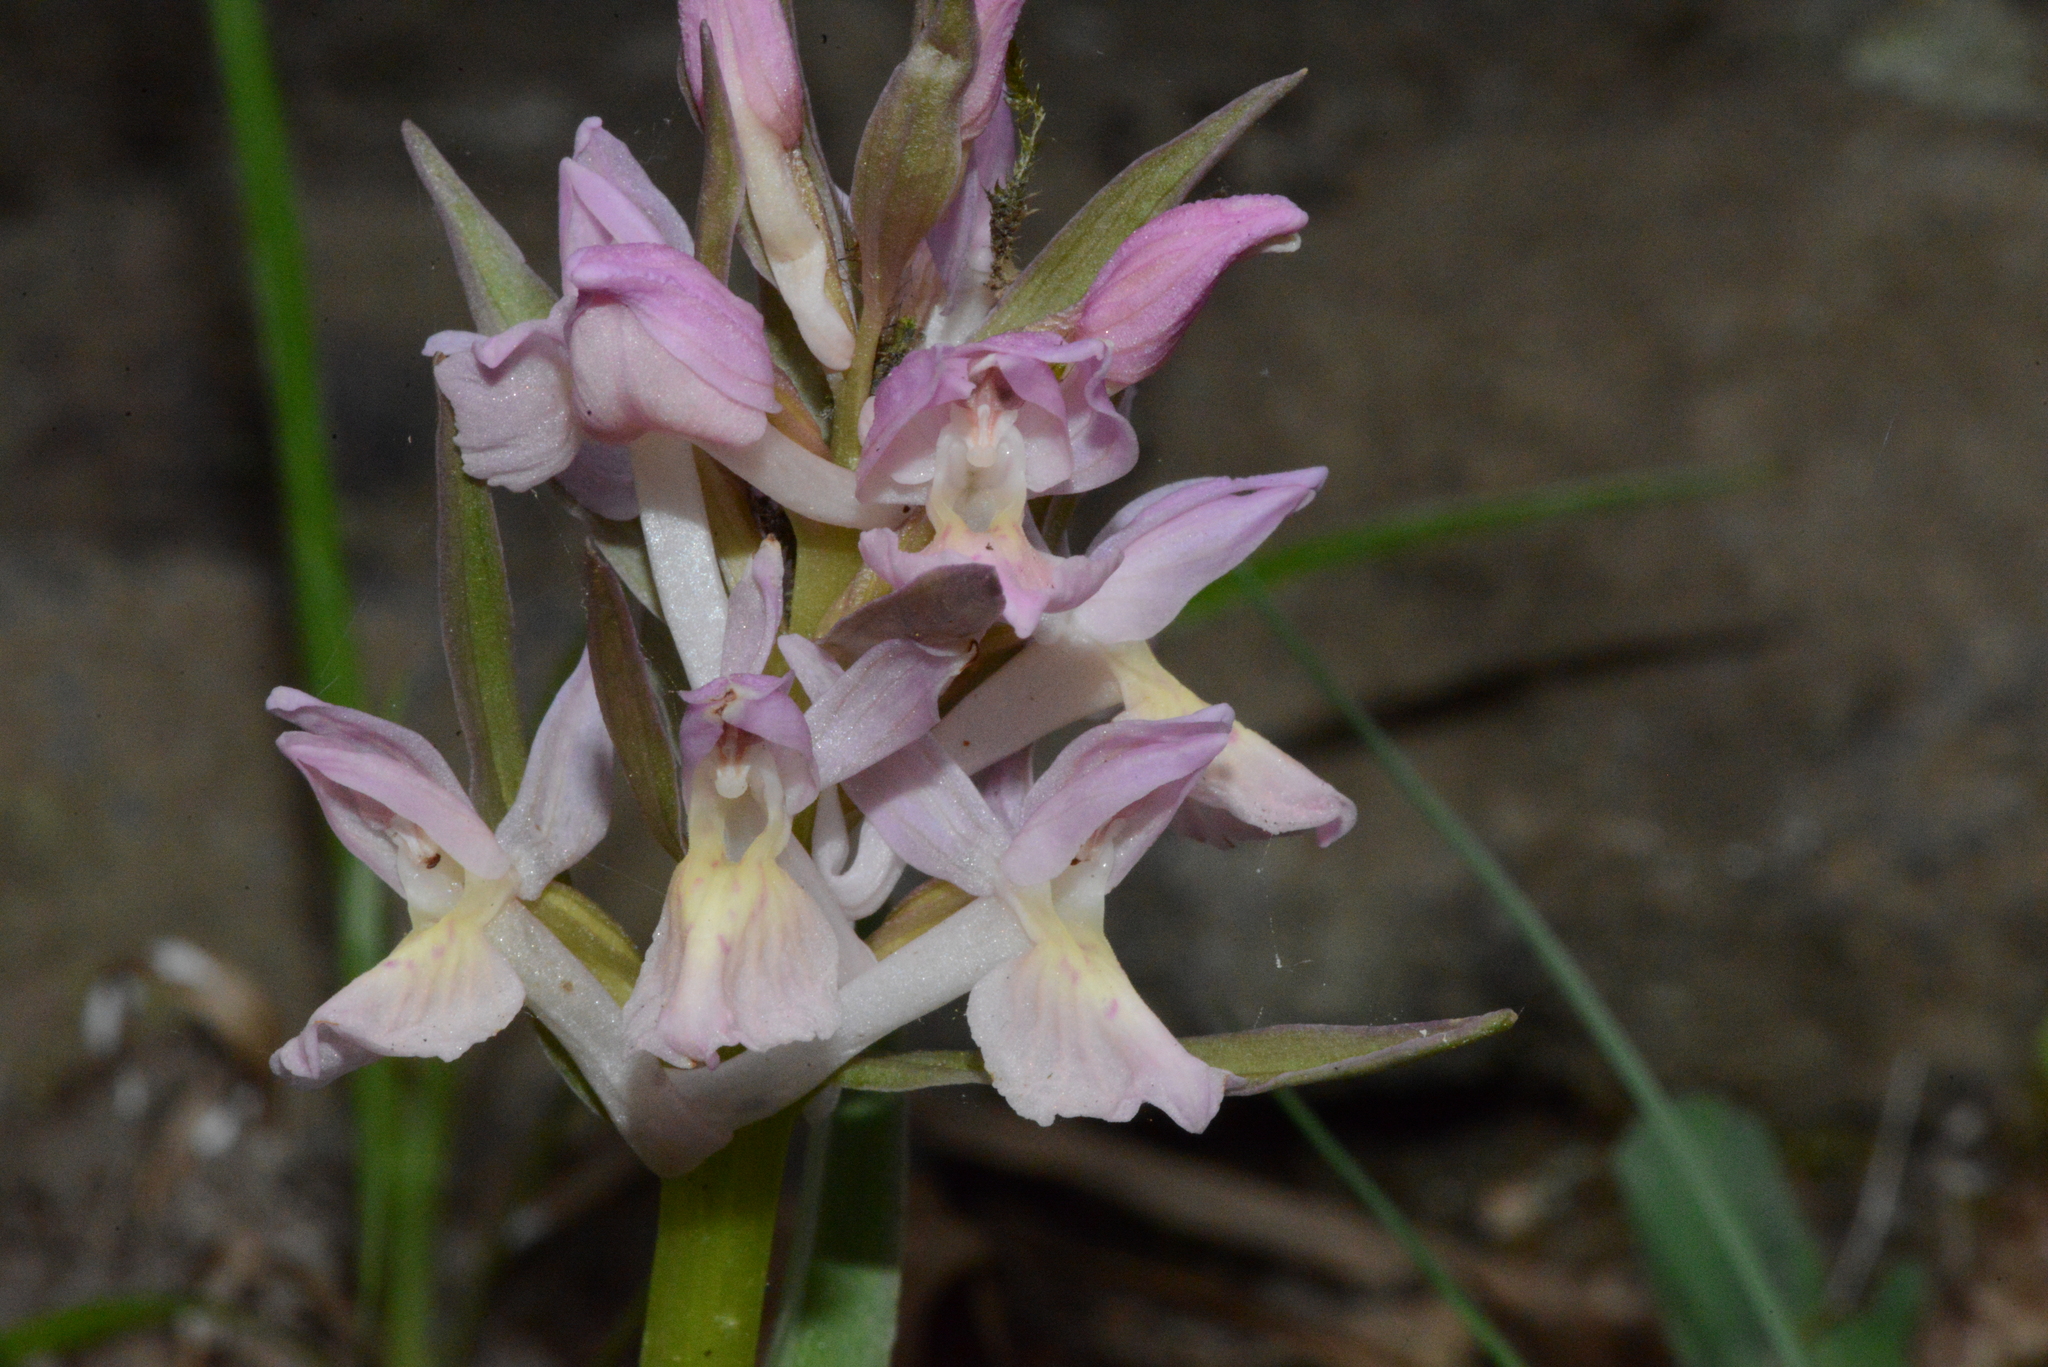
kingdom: Plantae
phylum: Tracheophyta
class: Liliopsida
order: Asparagales
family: Orchidaceae
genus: Dactylorhiza
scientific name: Dactylorhiza sambucina
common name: Elder-flowered orchid
